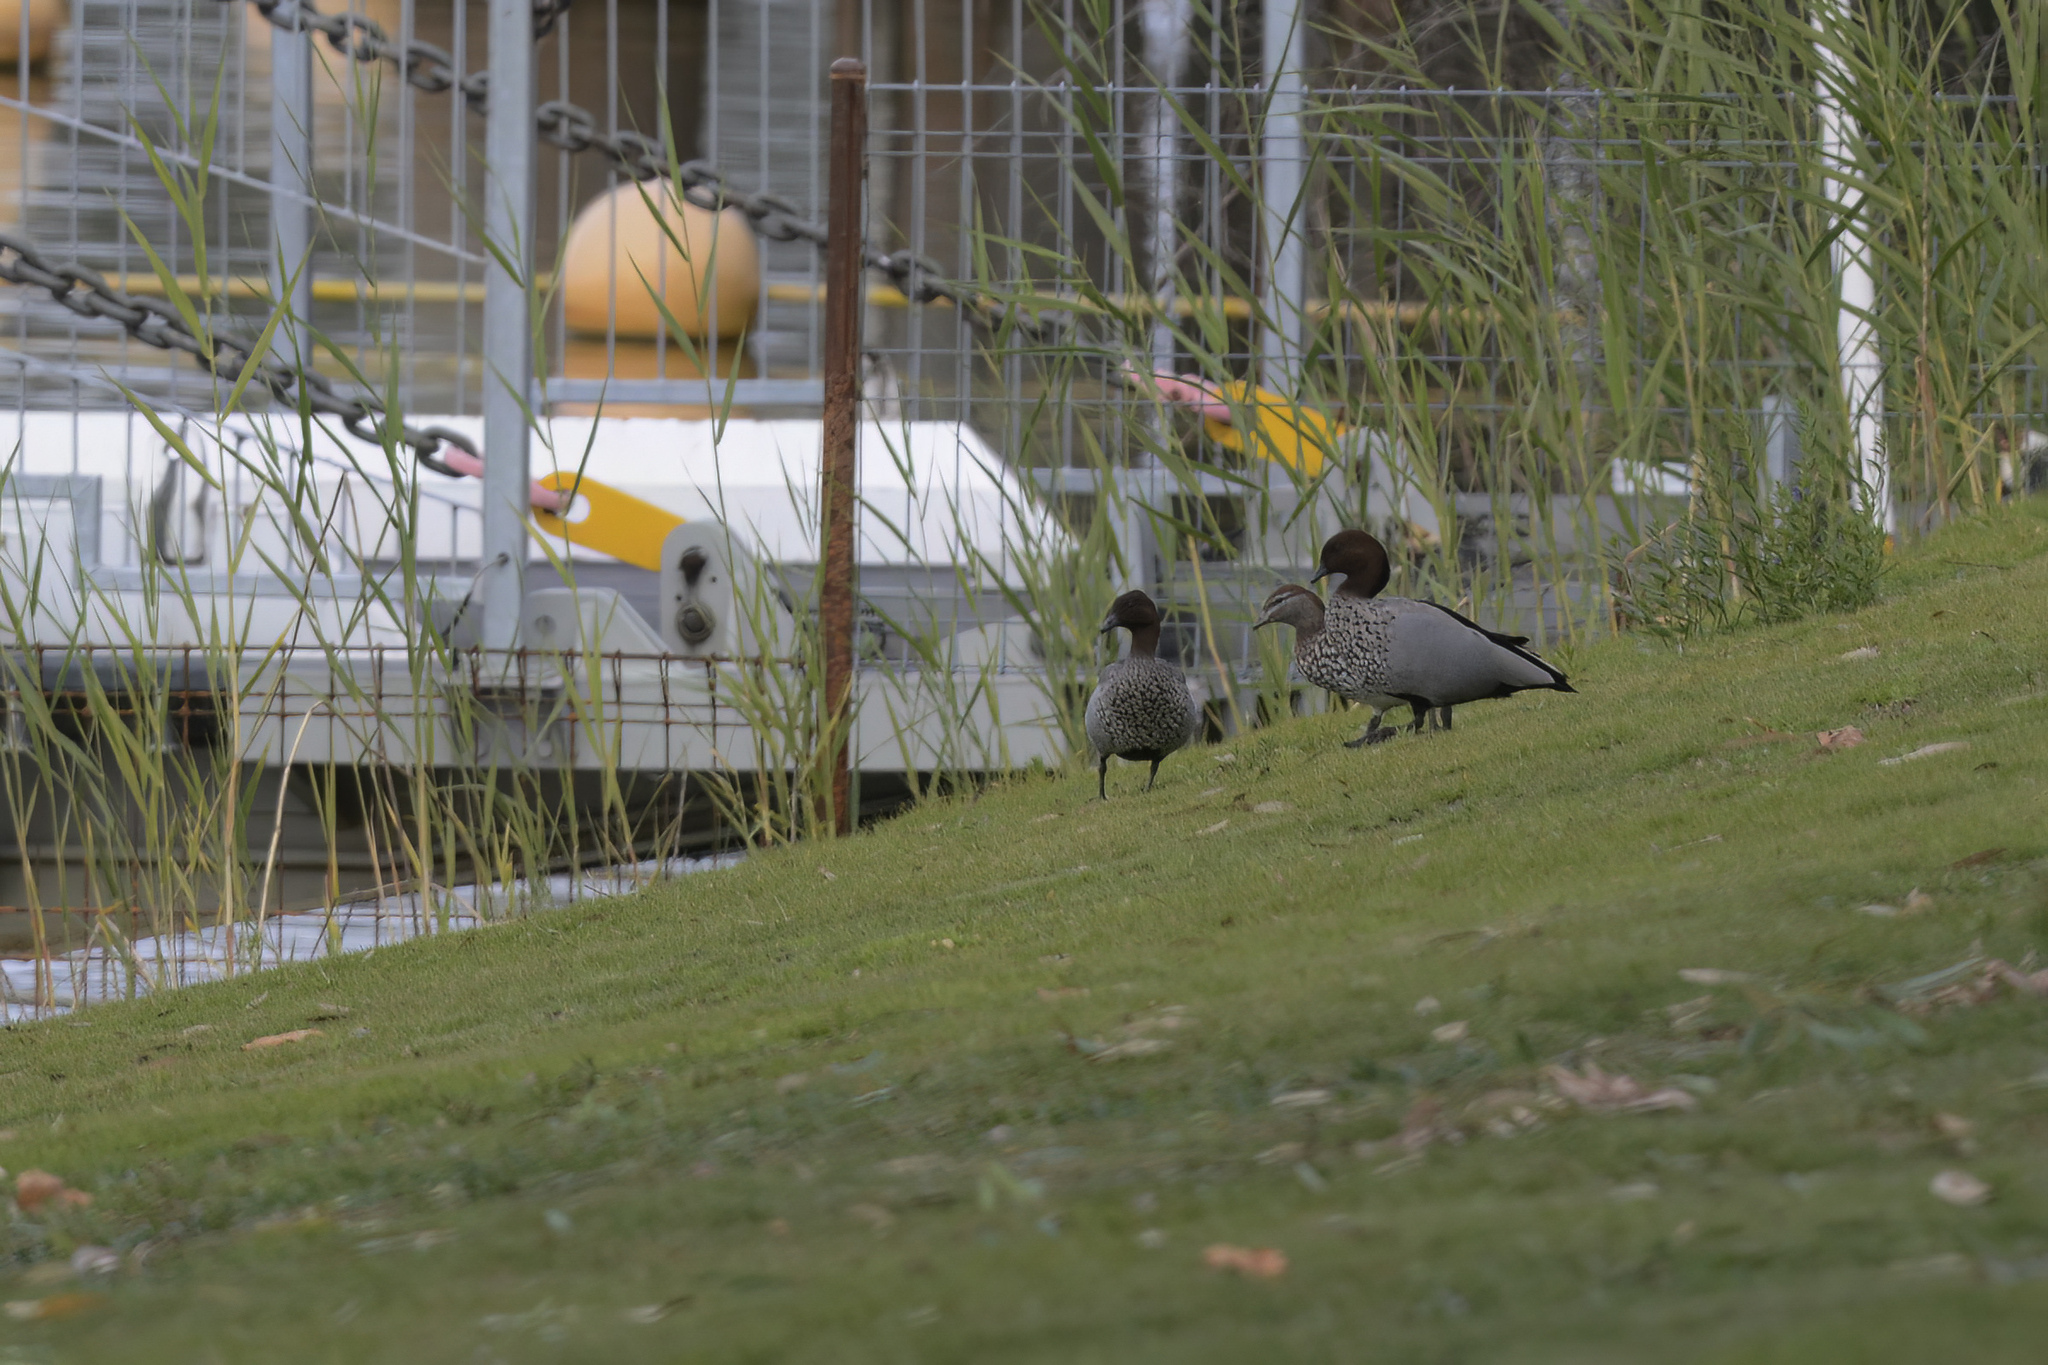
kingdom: Animalia
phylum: Chordata
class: Aves
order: Anseriformes
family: Anatidae
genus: Chenonetta
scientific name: Chenonetta jubata
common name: Maned duck
